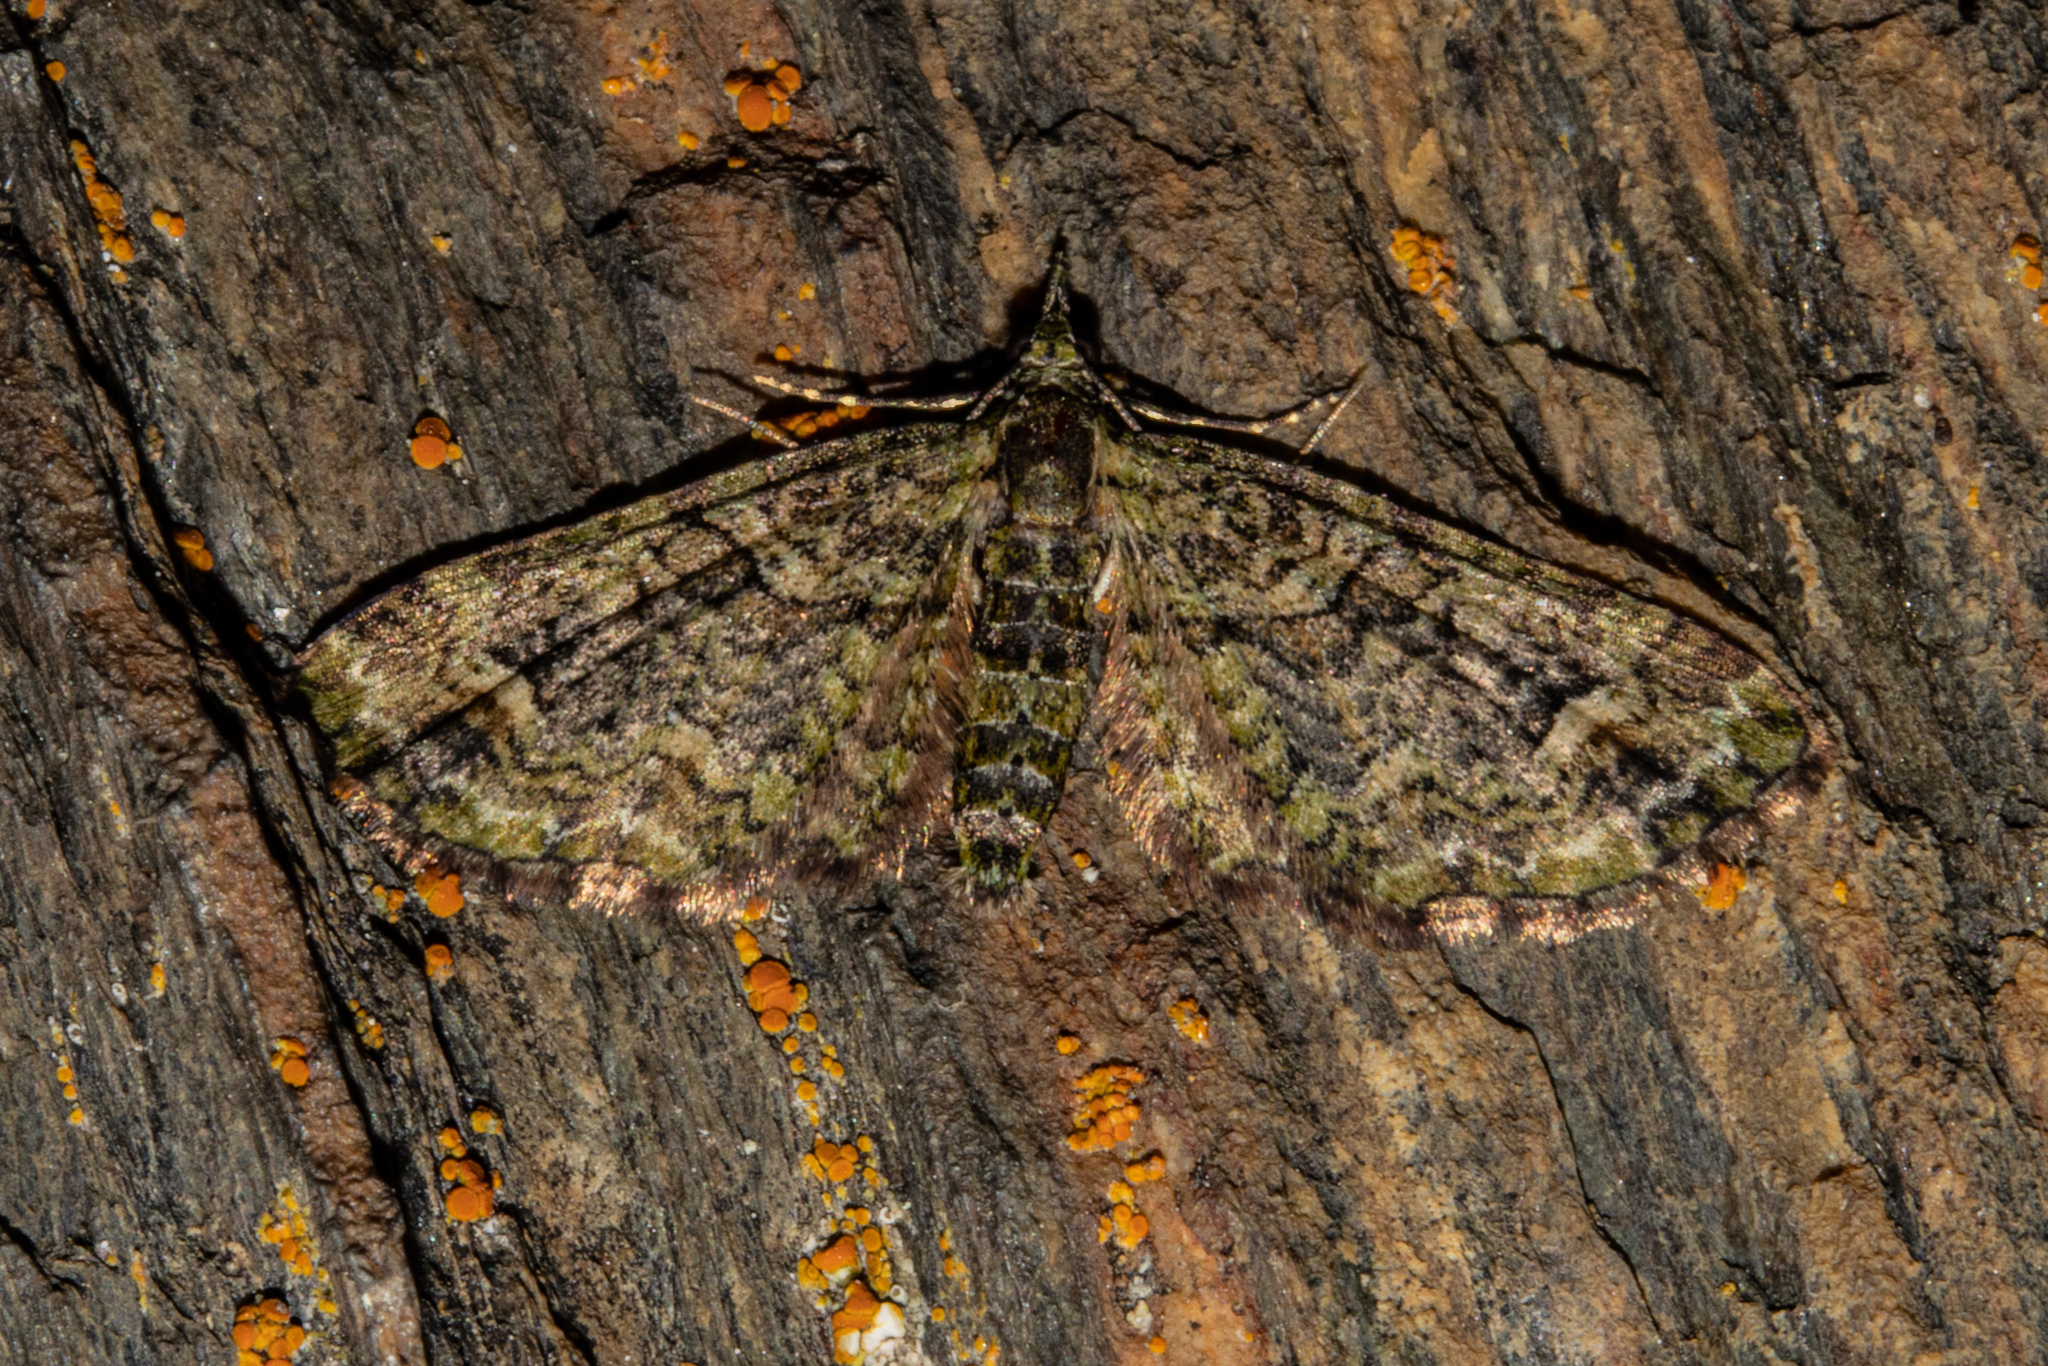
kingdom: Animalia
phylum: Arthropoda
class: Insecta
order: Lepidoptera
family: Geometridae
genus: Idaea
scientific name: Idaea mutanda
